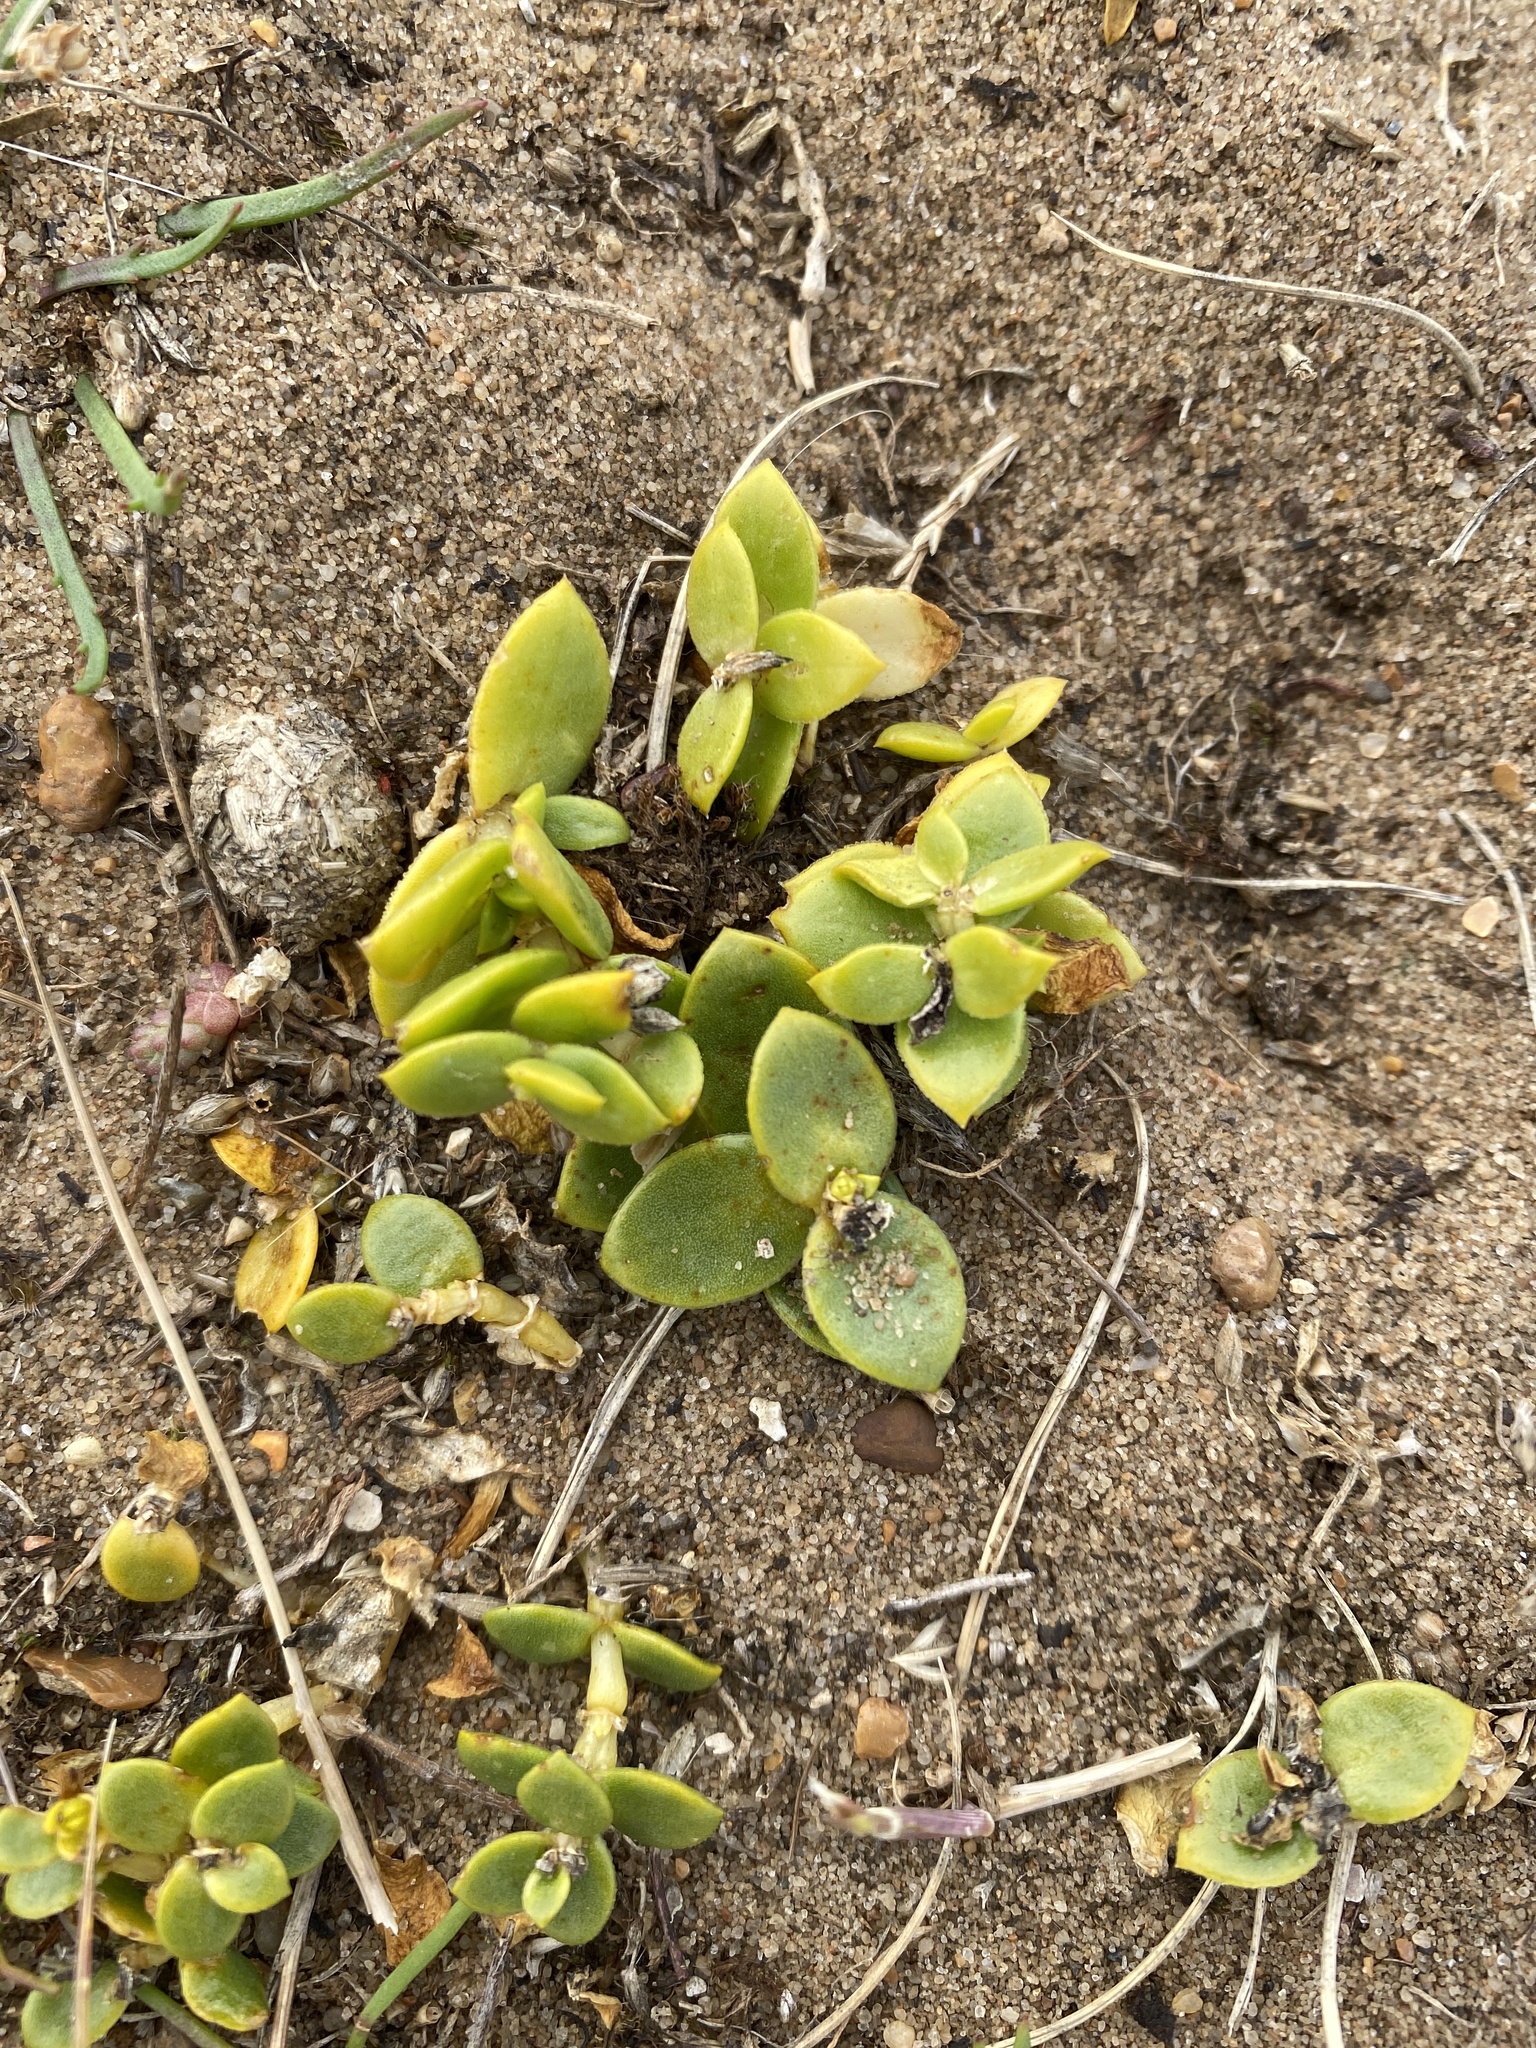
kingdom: Plantae
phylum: Tracheophyta
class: Magnoliopsida
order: Caryophyllales
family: Caryophyllaceae
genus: Honckenya
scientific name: Honckenya peploides
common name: Sea sandwort
